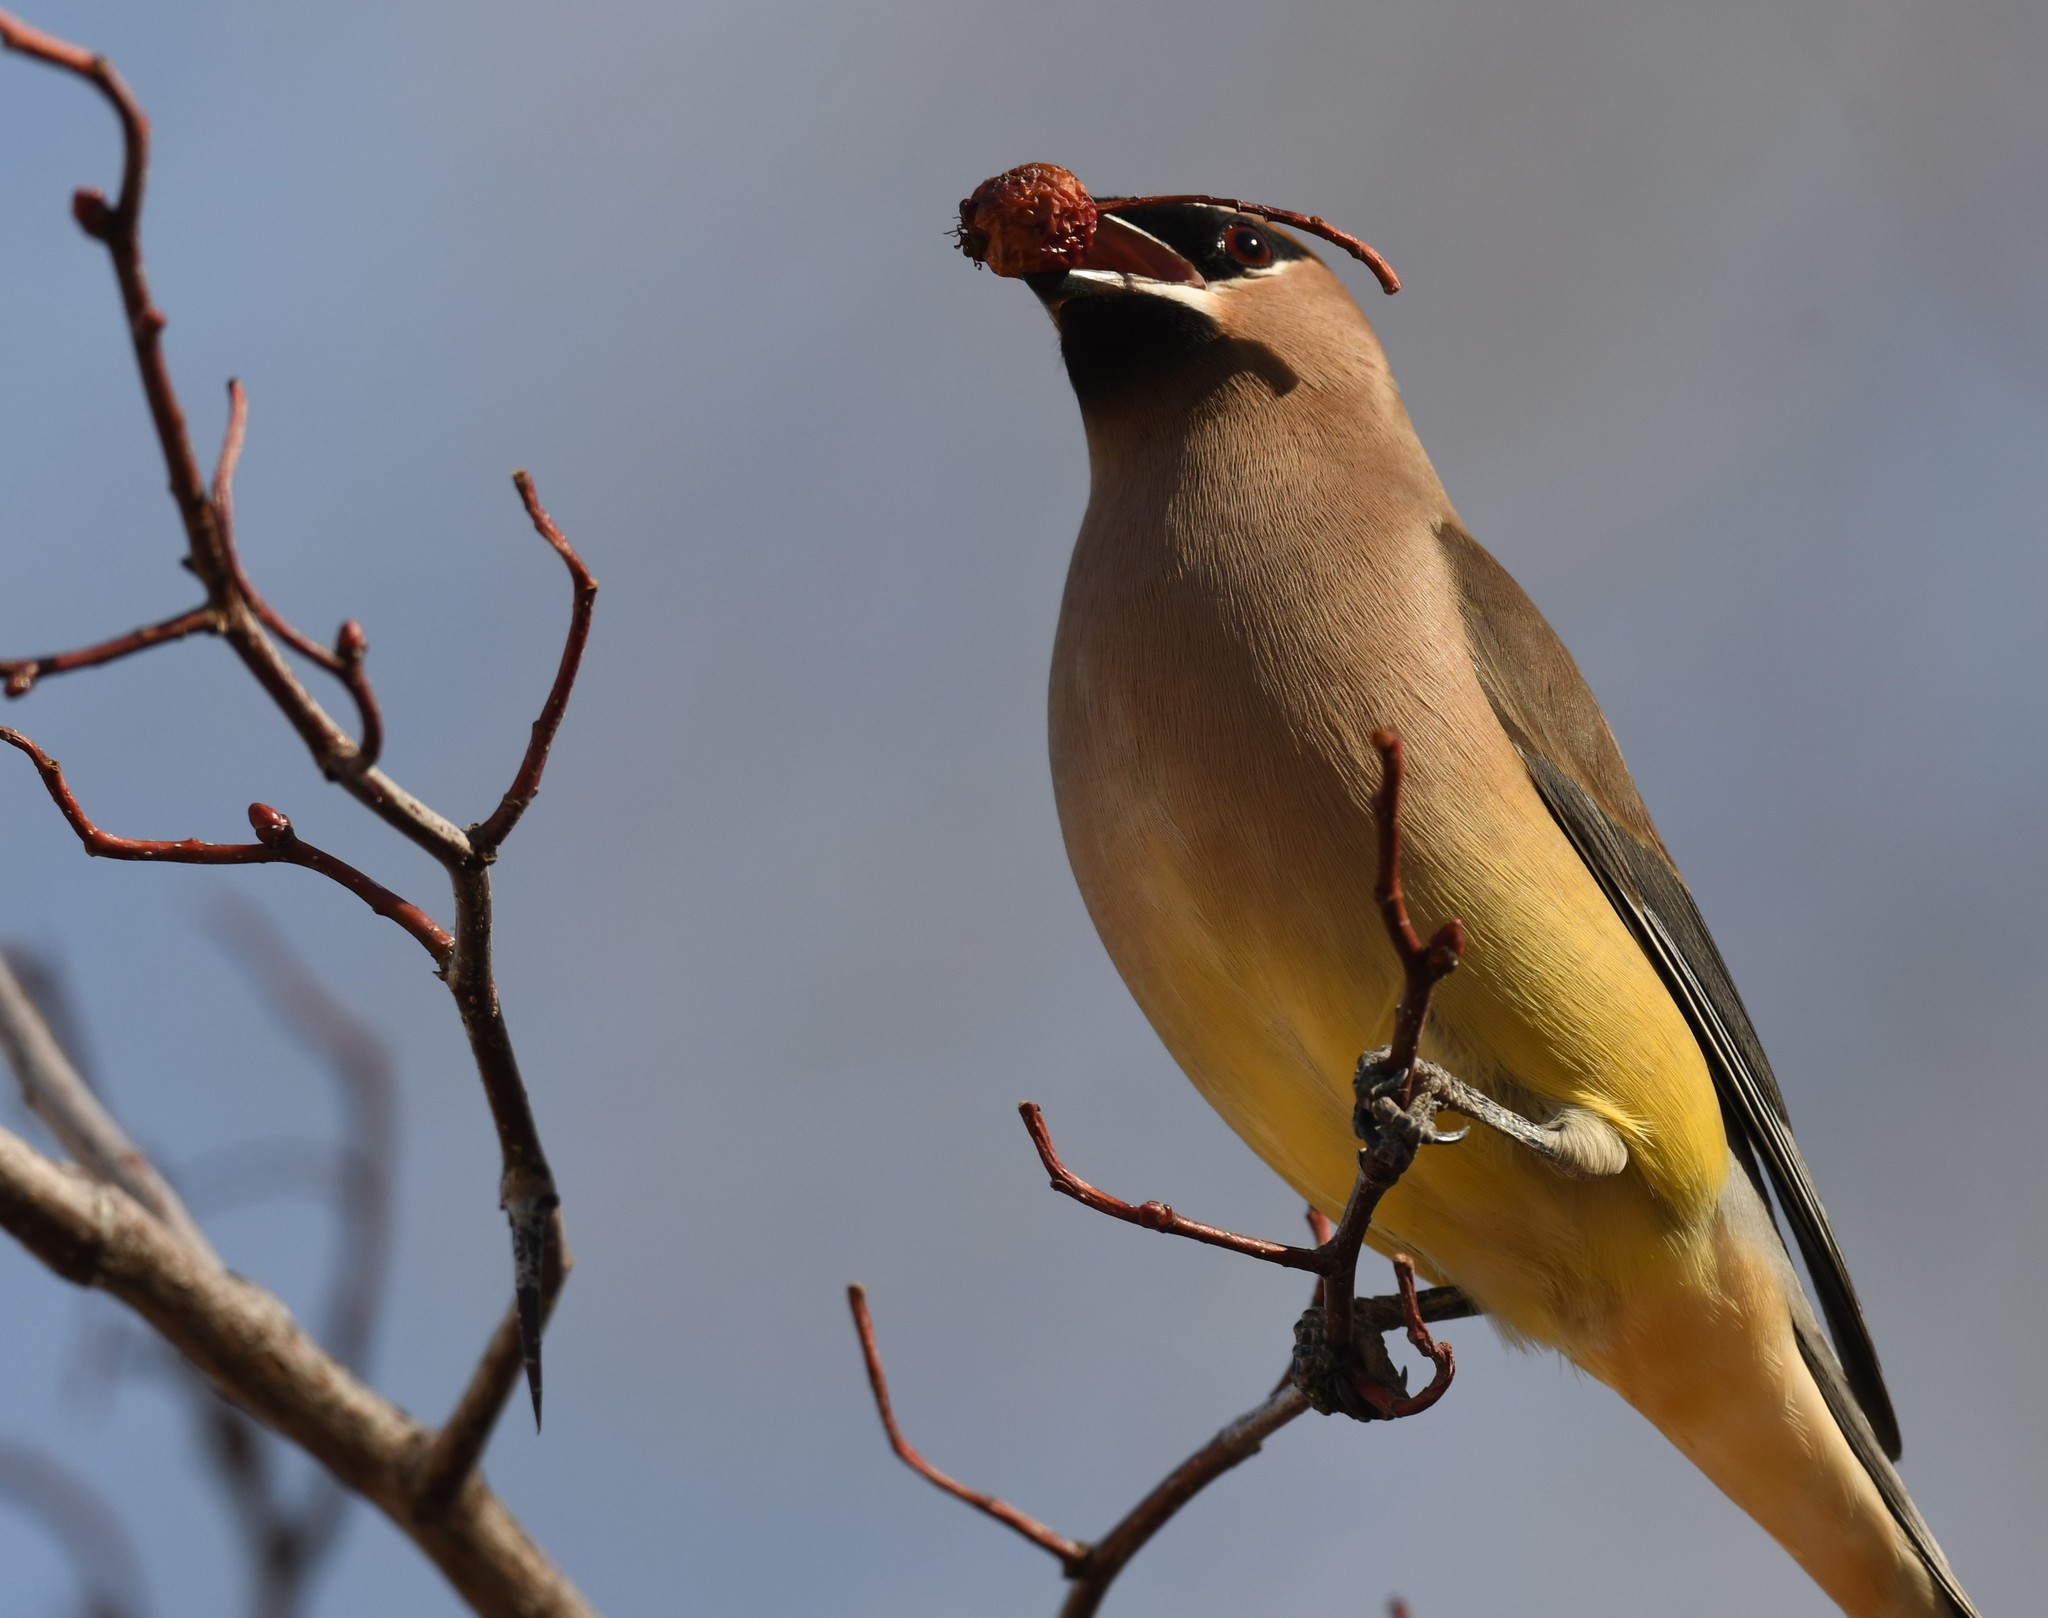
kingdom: Animalia
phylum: Chordata
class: Aves
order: Passeriformes
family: Bombycillidae
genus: Bombycilla
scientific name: Bombycilla cedrorum
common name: Cedar waxwing
